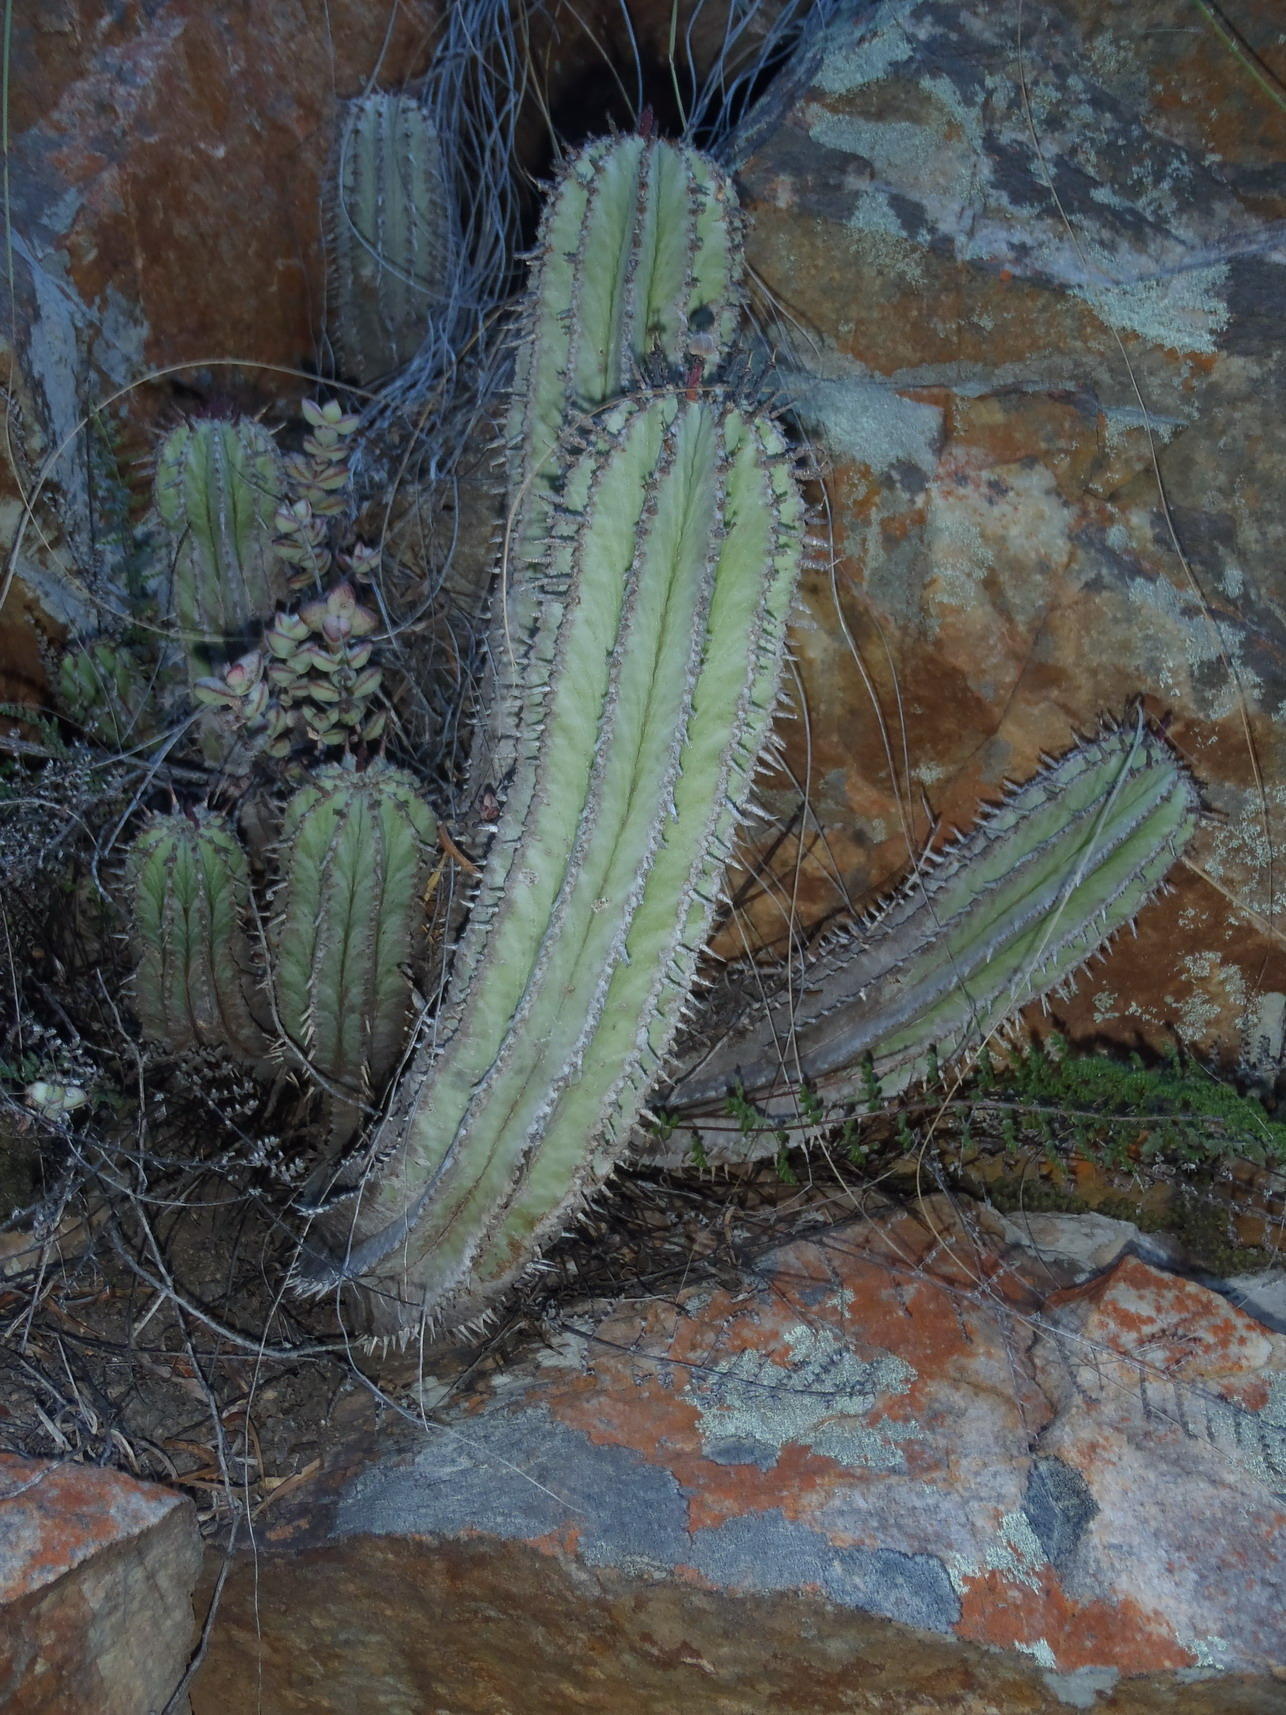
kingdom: Plantae
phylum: Tracheophyta
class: Magnoliopsida
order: Malpighiales
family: Euphorbiaceae
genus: Euphorbia
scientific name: Euphorbia polygona
